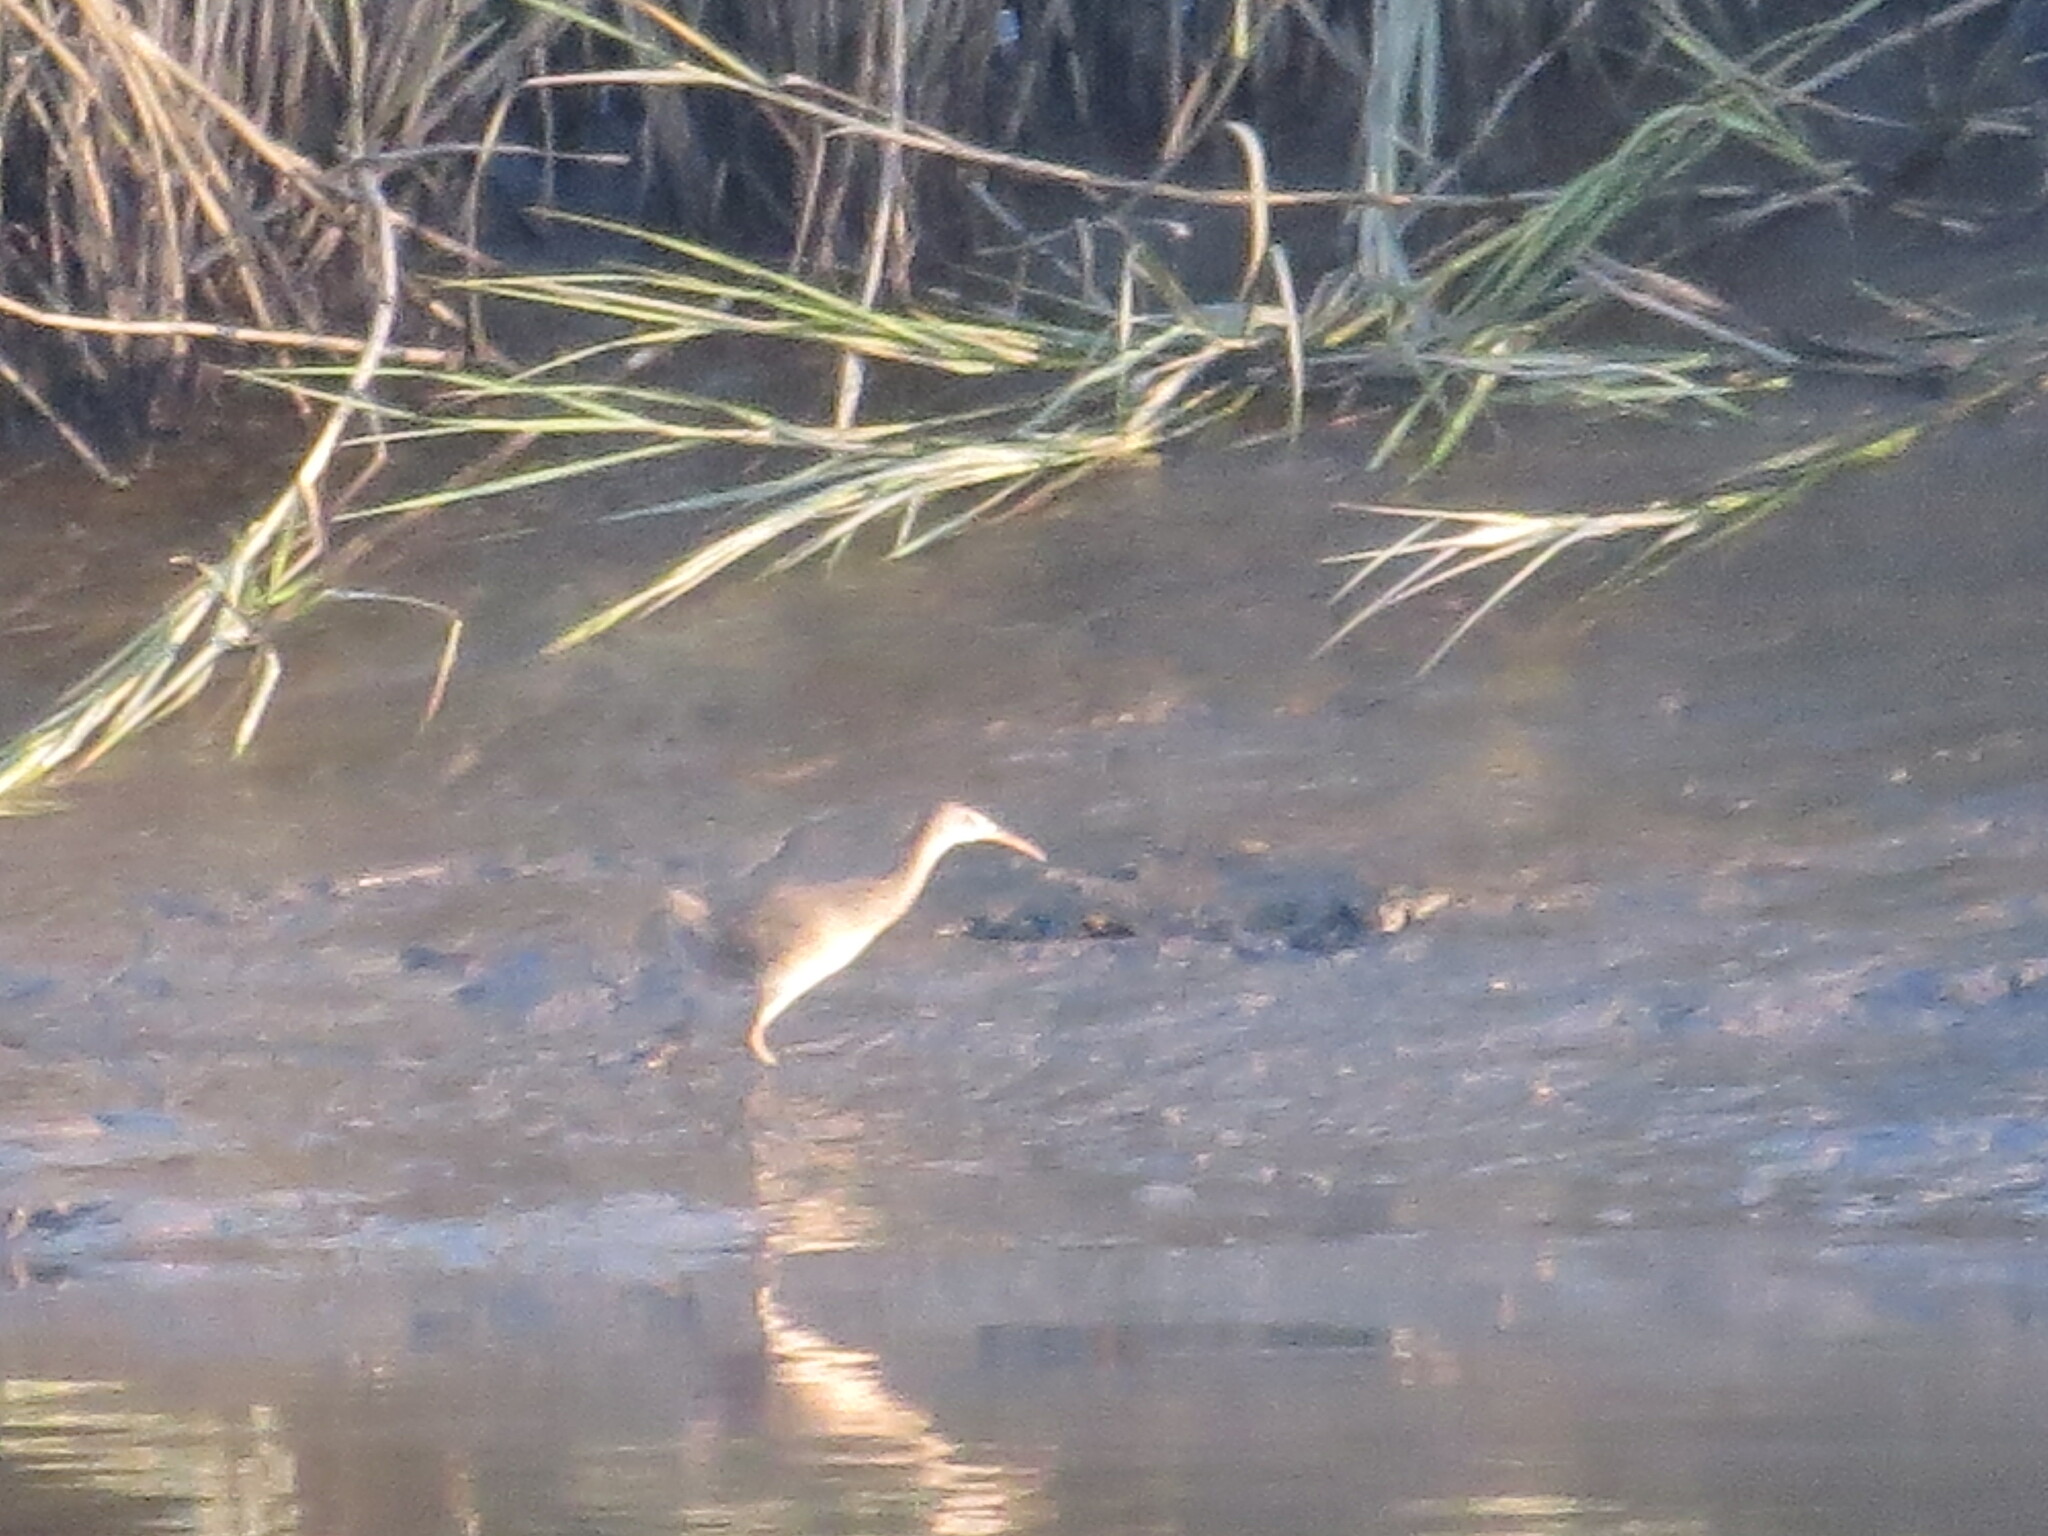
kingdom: Animalia
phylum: Chordata
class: Aves
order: Gruiformes
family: Rallidae
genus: Rallus
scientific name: Rallus crepitans
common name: Clapper rail
